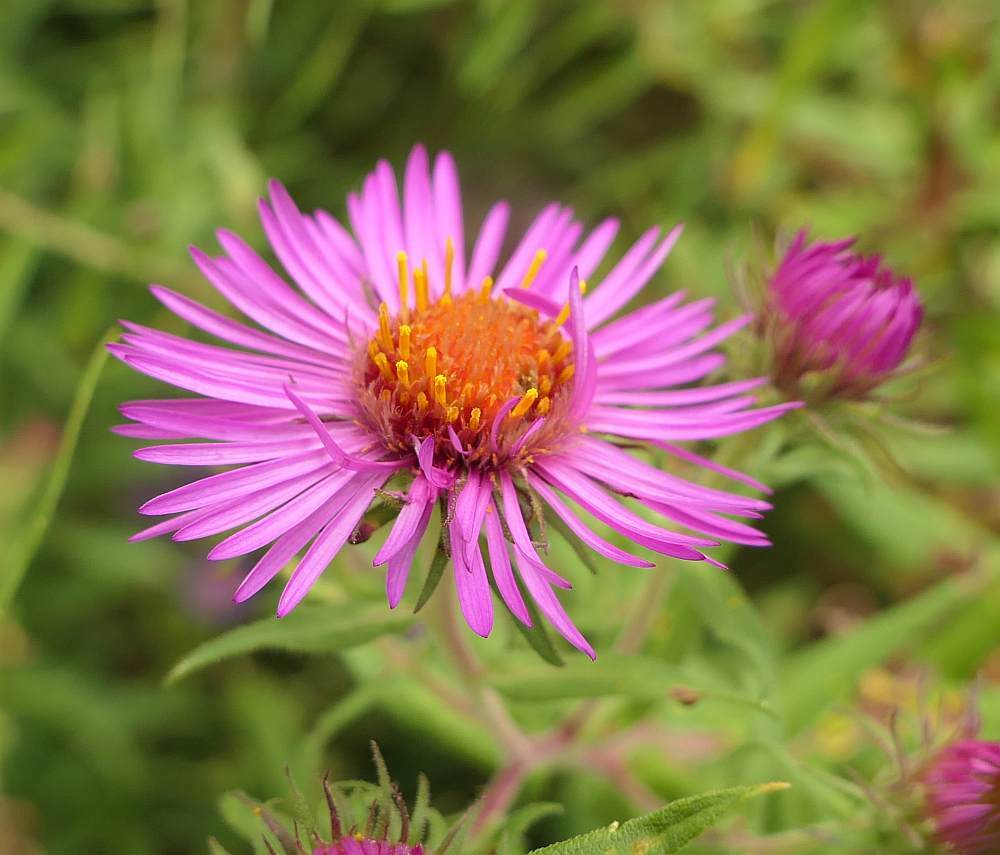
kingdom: Plantae
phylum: Tracheophyta
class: Magnoliopsida
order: Asterales
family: Asteraceae
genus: Symphyotrichum
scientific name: Symphyotrichum novae-angliae
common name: Michaelmas daisy
